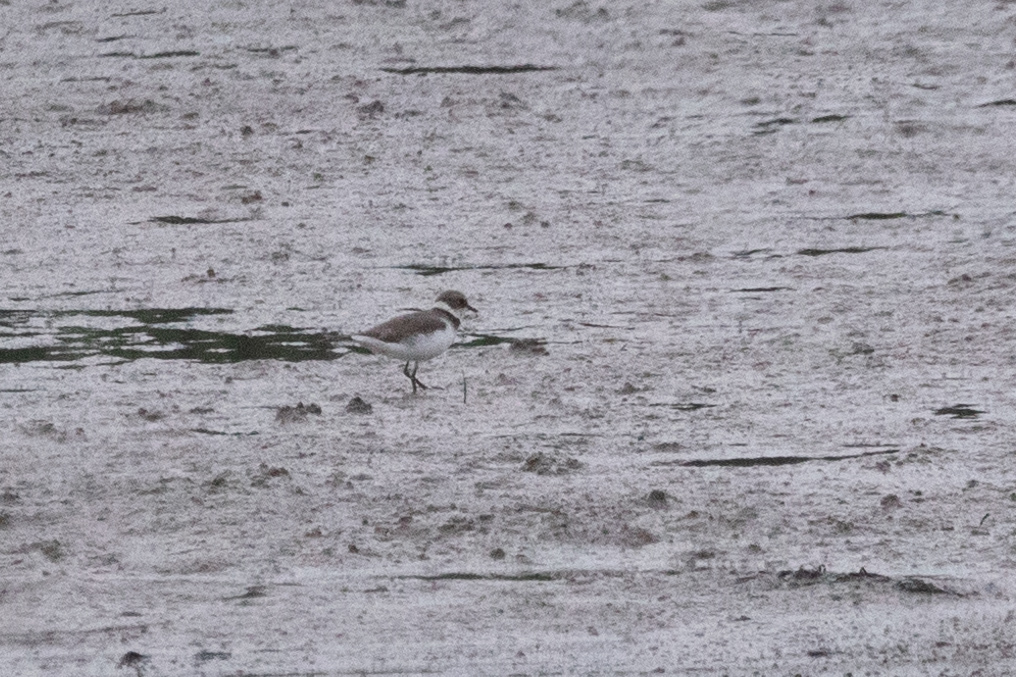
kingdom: Animalia
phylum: Chordata
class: Aves
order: Charadriiformes
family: Charadriidae
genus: Charadrius
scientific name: Charadrius dubius
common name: Little ringed plover
